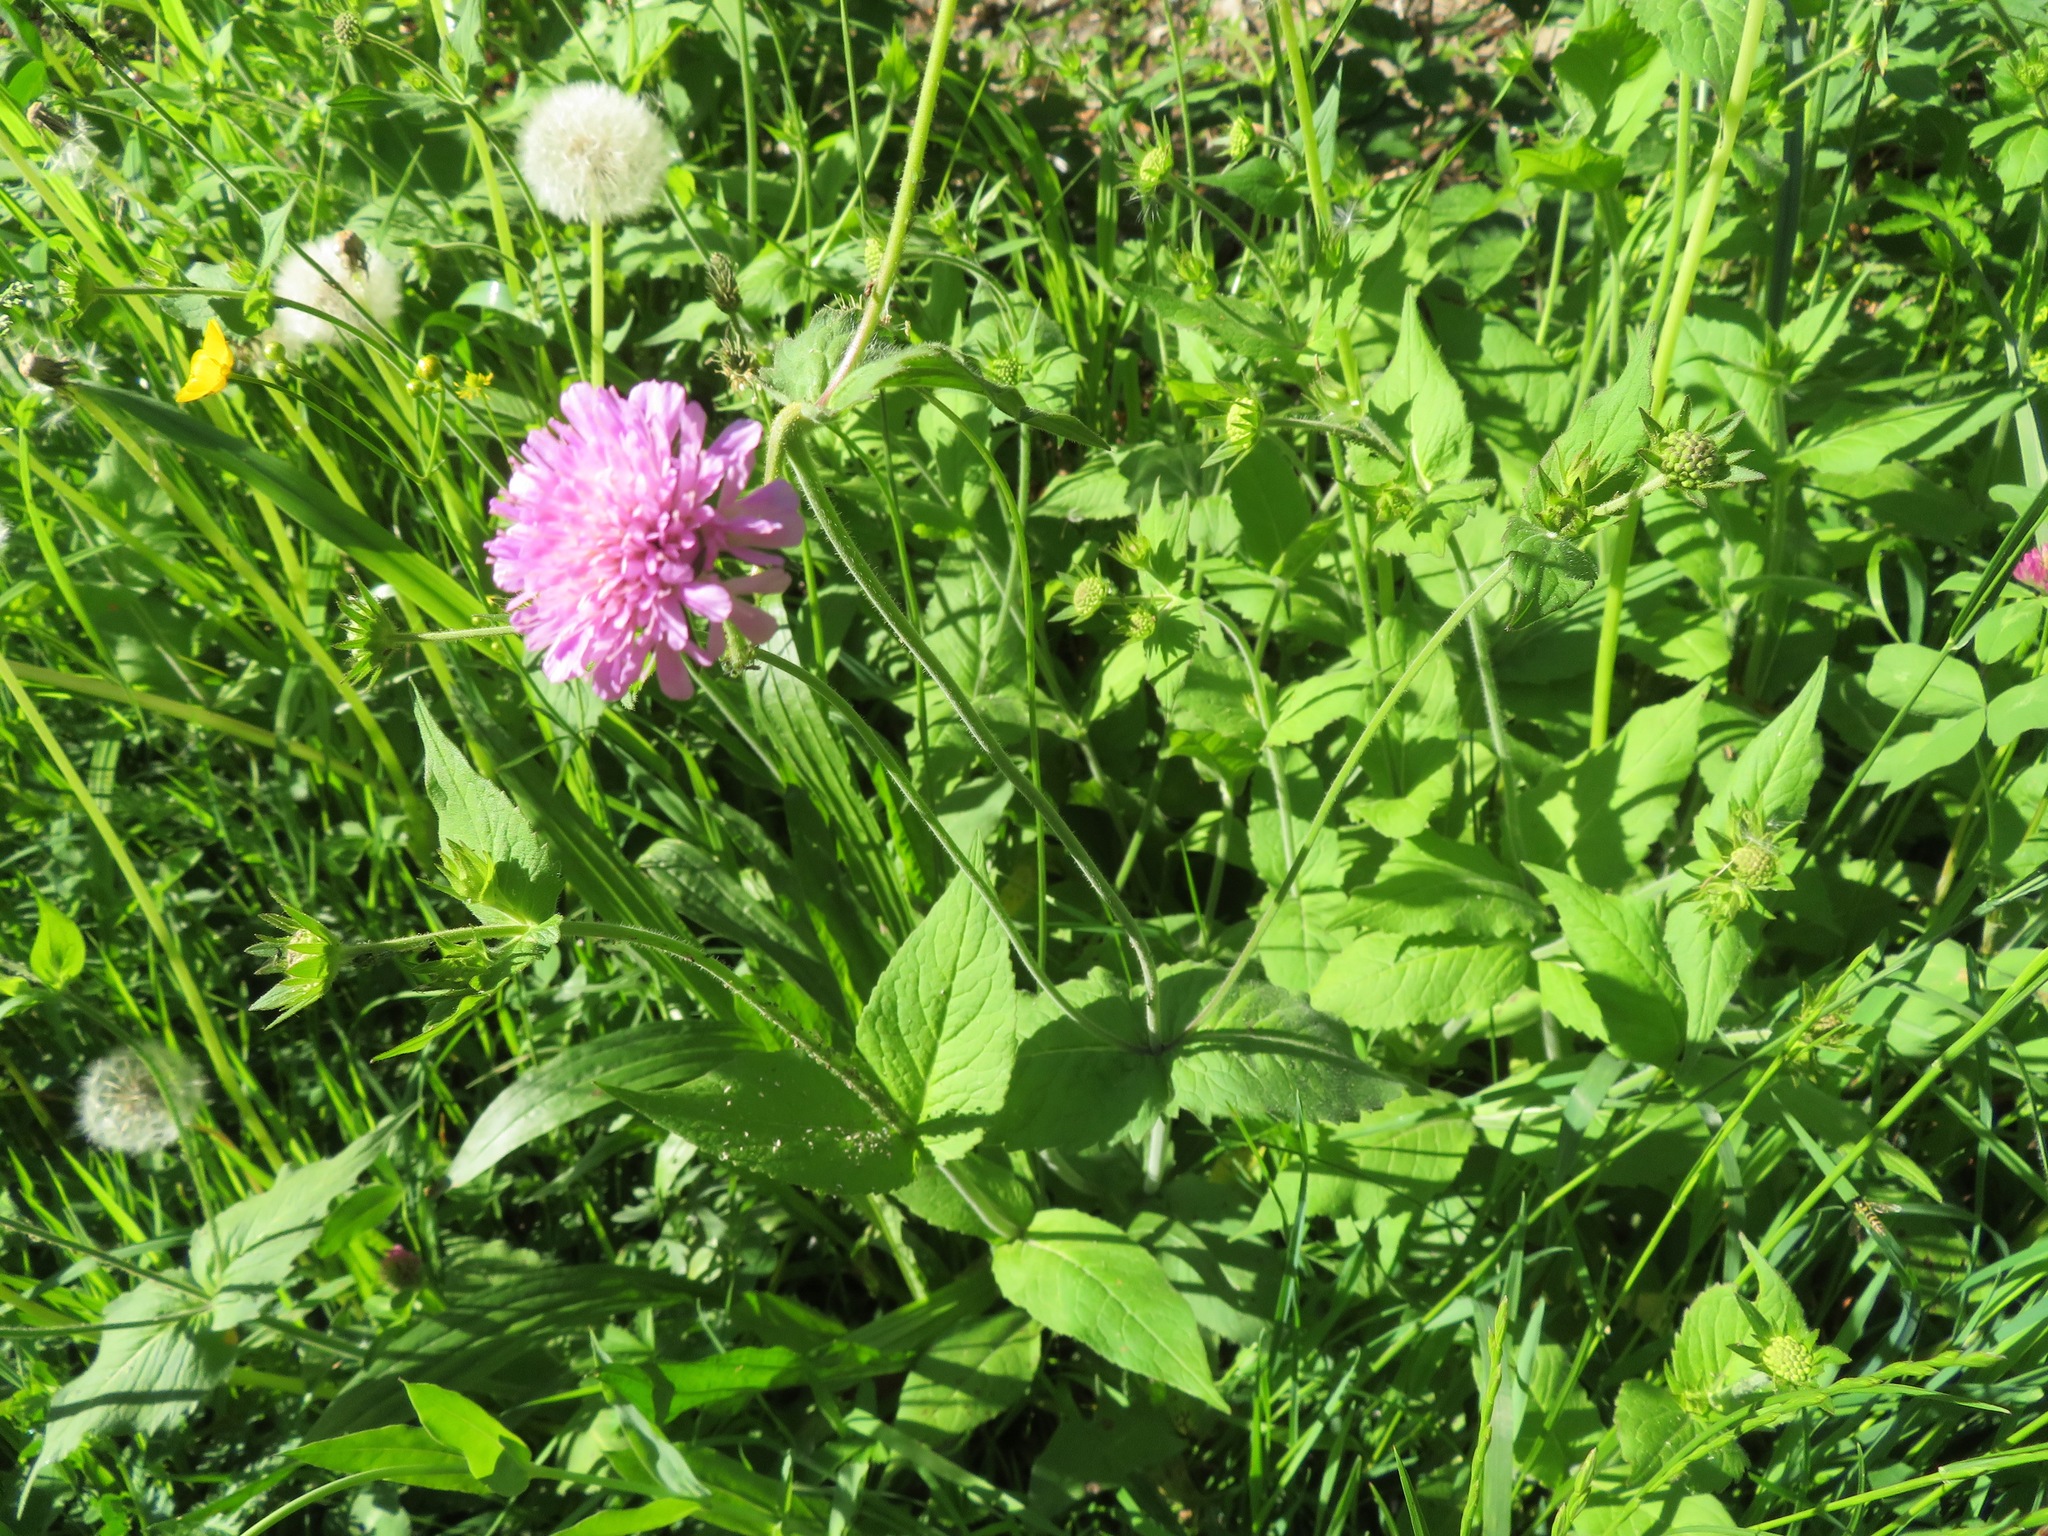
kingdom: Plantae
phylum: Tracheophyta
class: Magnoliopsida
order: Dipsacales
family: Caprifoliaceae
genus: Knautia
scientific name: Knautia drymeia
